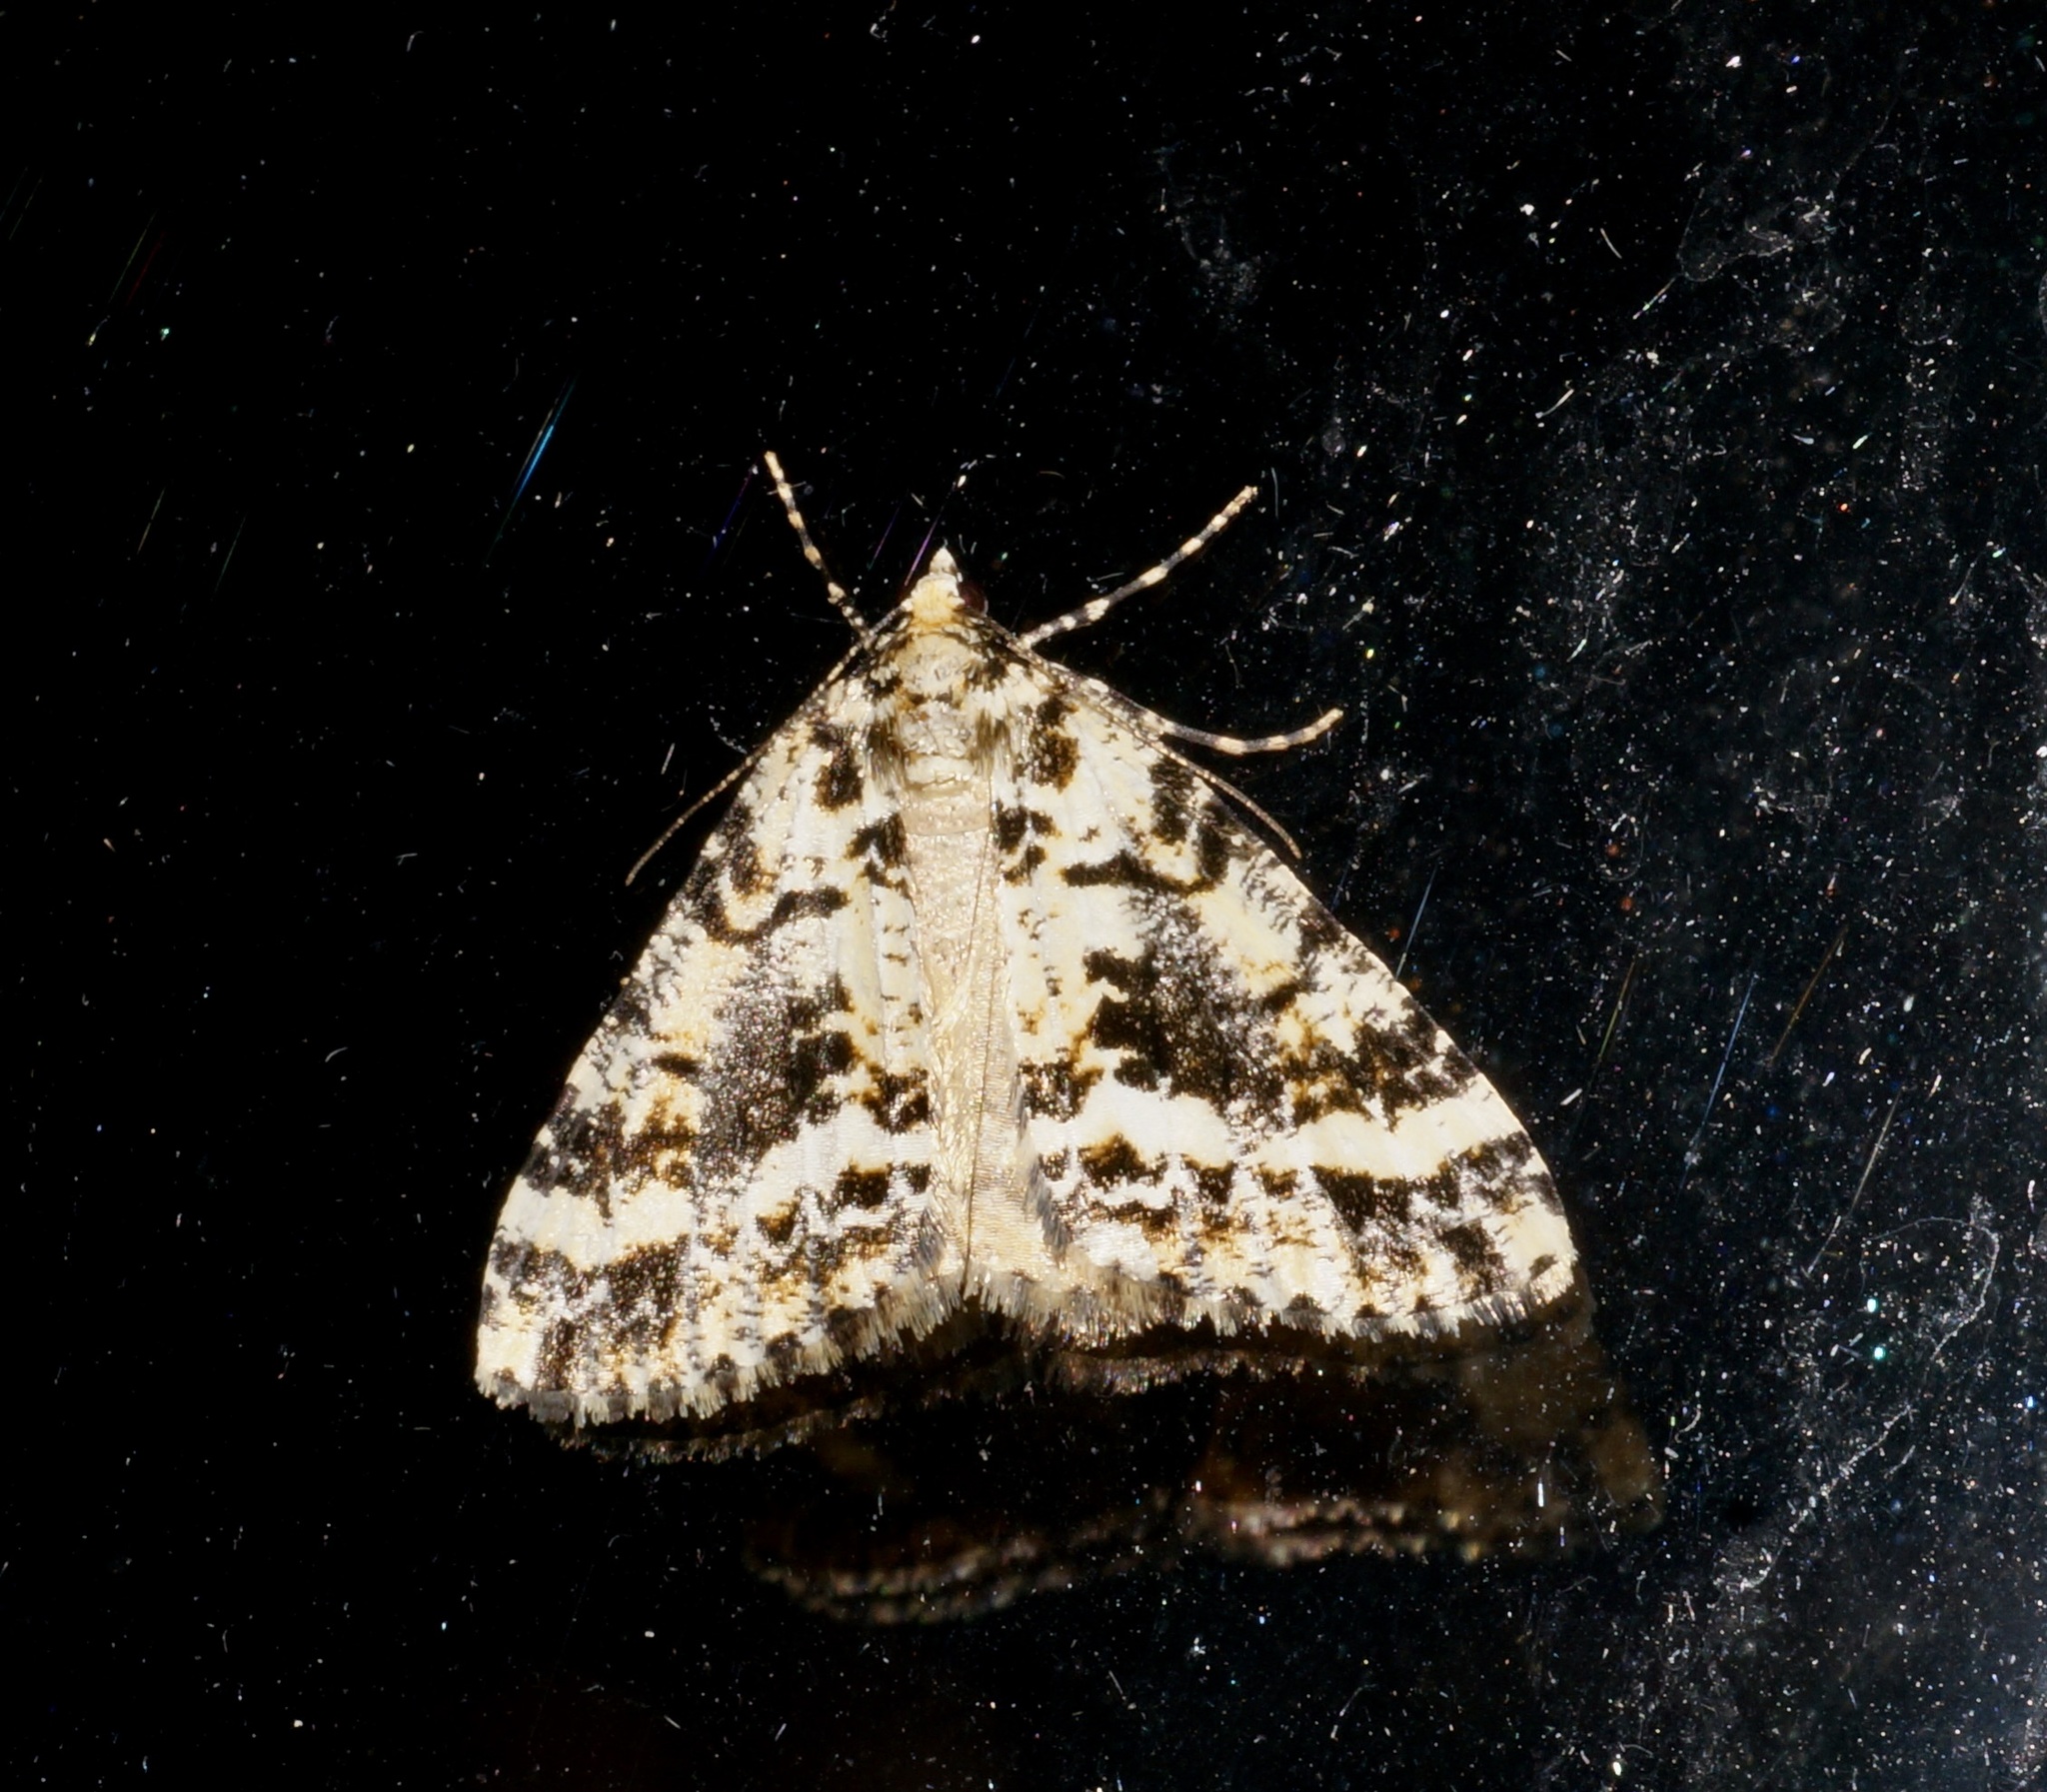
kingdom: Animalia
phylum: Arthropoda
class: Insecta
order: Lepidoptera
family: Geometridae
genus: Pseudocoremia
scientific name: Pseudocoremia leucelaea
